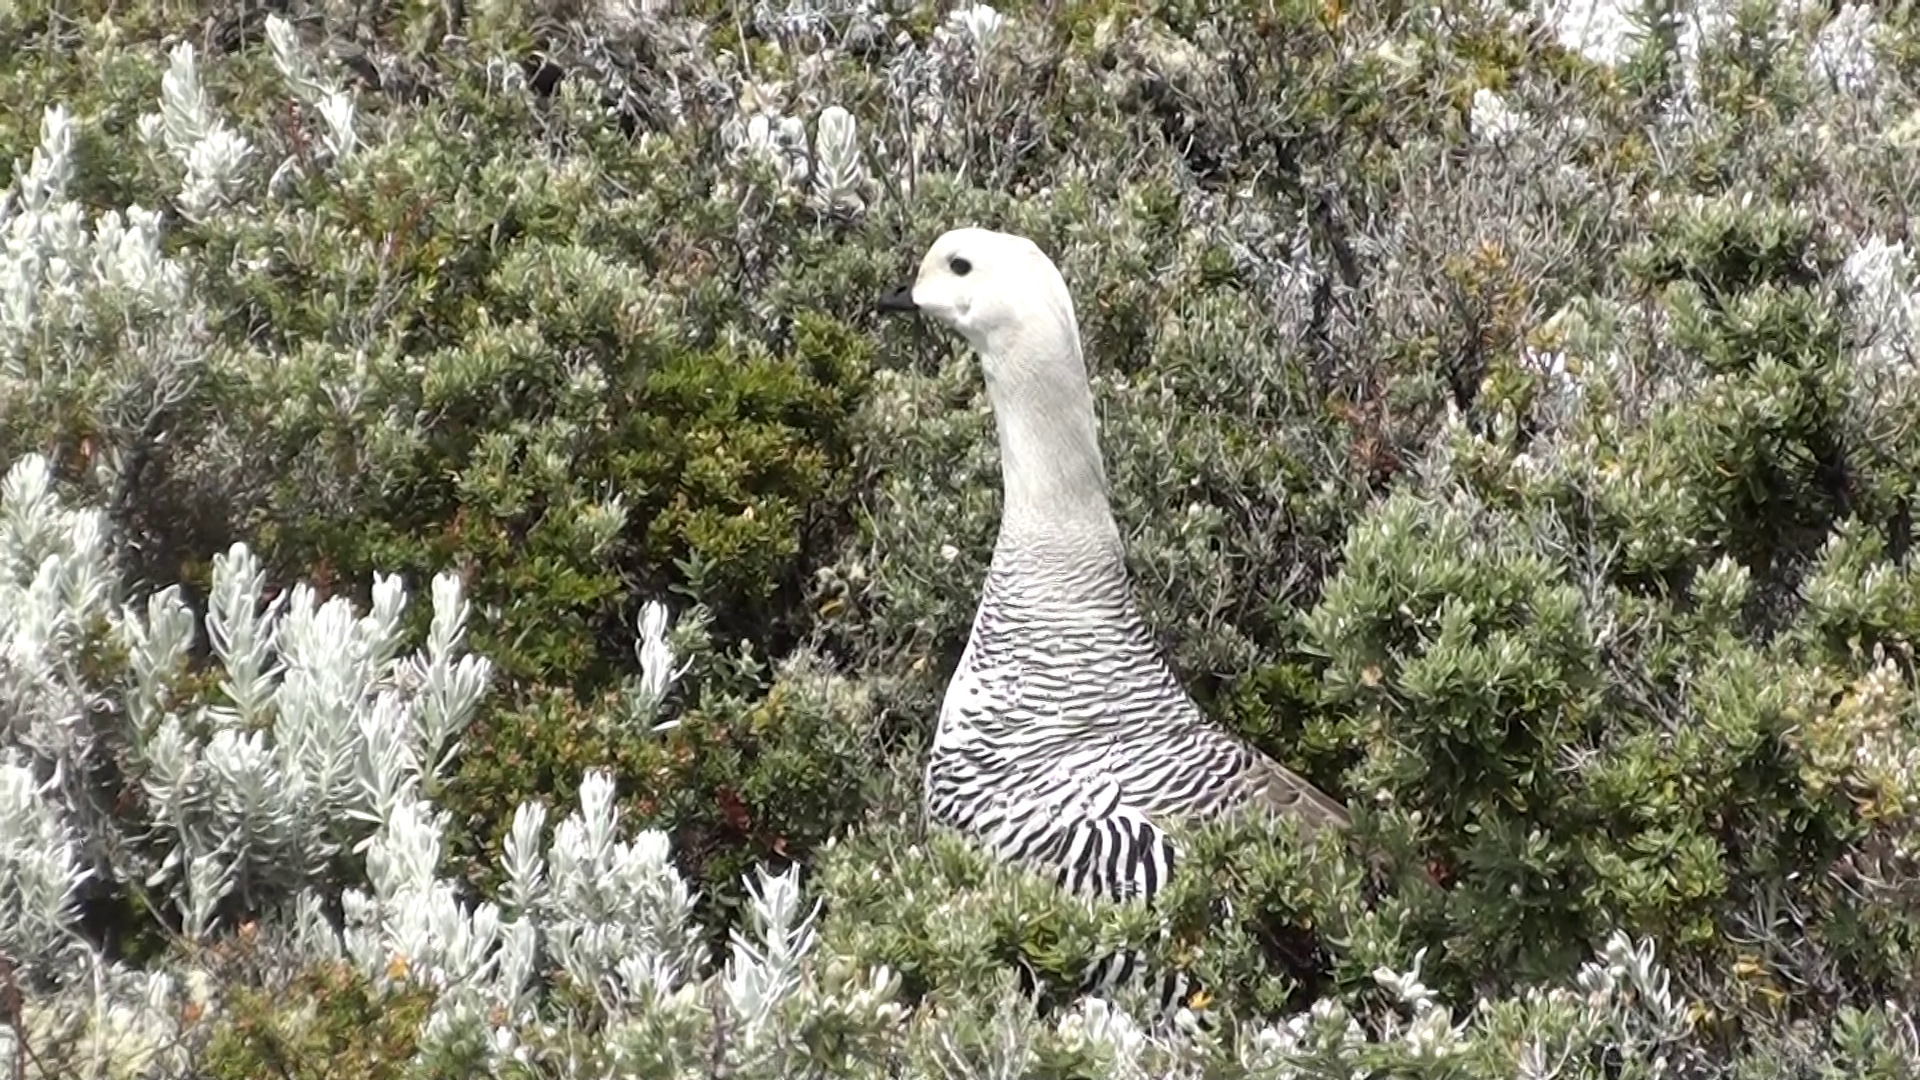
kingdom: Animalia
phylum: Chordata
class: Aves
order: Anseriformes
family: Anatidae
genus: Chloephaga
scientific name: Chloephaga picta
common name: Upland goose
